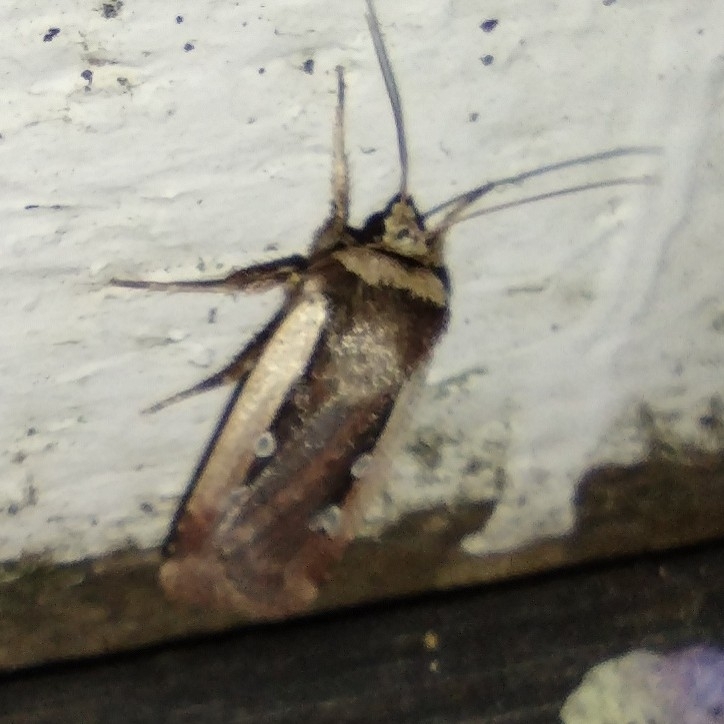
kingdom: Animalia
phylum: Arthropoda
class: Insecta
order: Lepidoptera
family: Noctuidae
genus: Ochropleura
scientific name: Ochropleura plecta
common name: Flame shoulder
